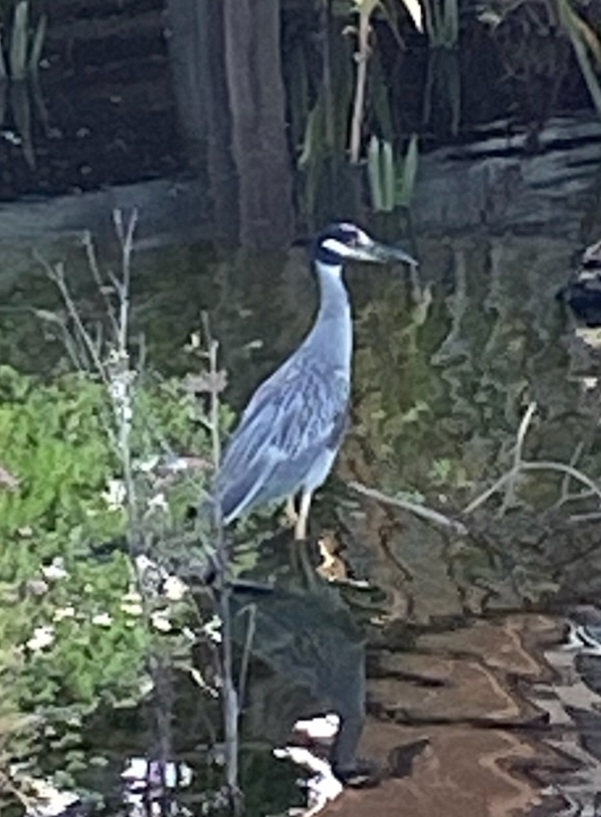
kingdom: Animalia
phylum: Chordata
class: Aves
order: Pelecaniformes
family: Ardeidae
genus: Nyctanassa
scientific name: Nyctanassa violacea
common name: Yellow-crowned night heron
